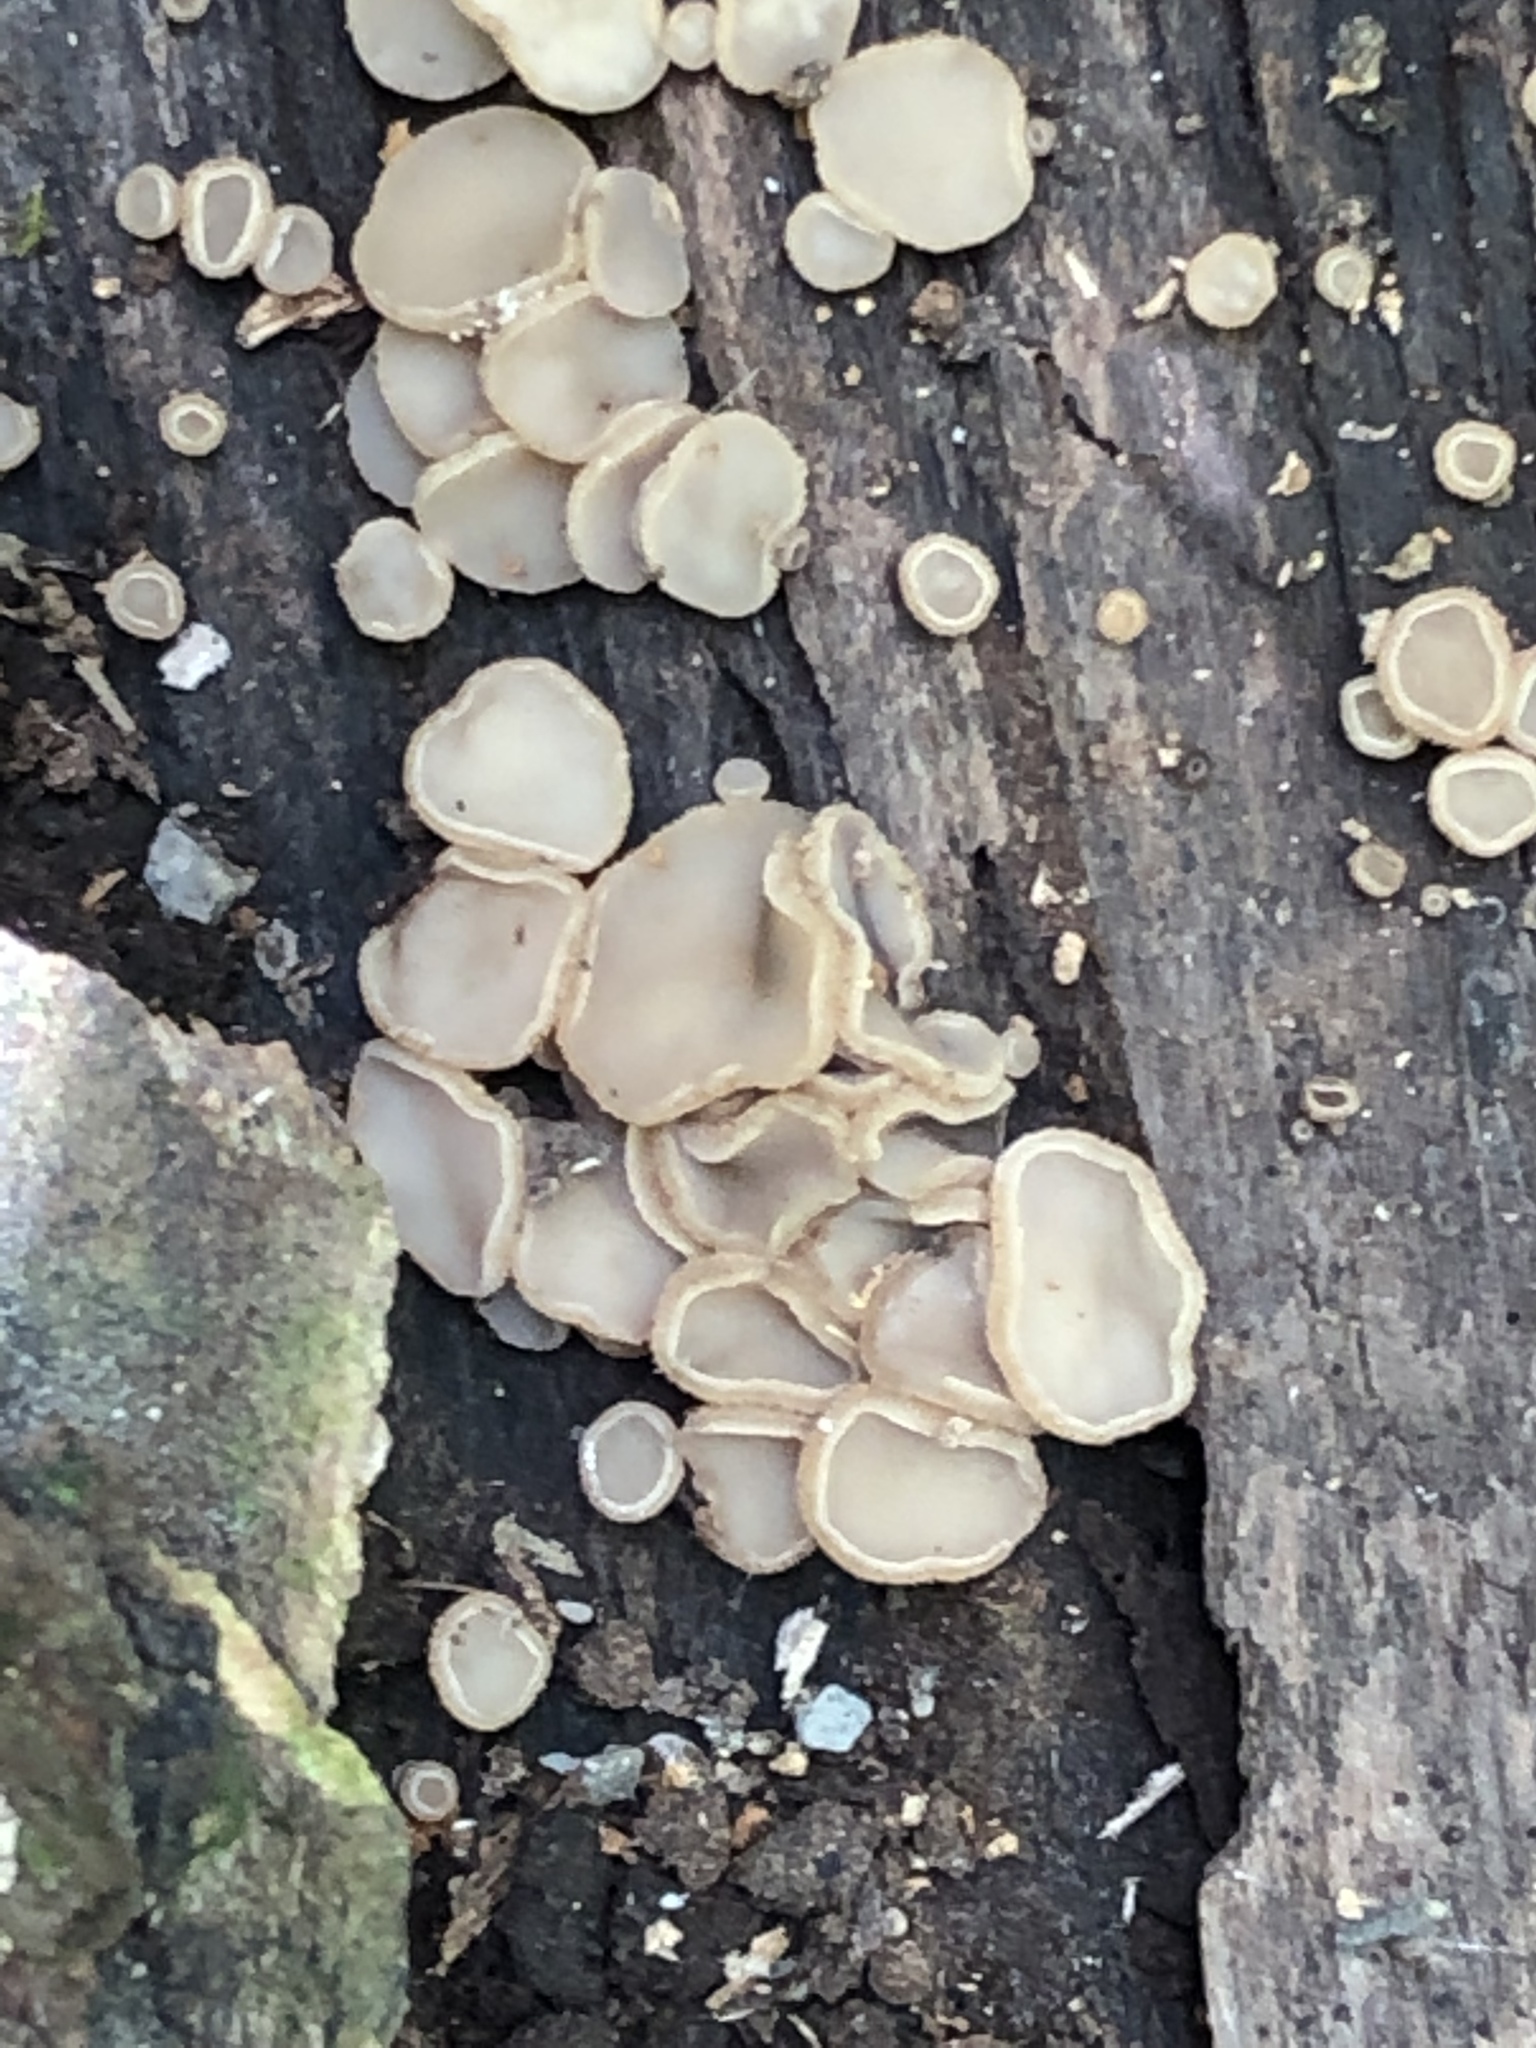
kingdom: Fungi
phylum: Ascomycota
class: Leotiomycetes
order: Helotiales
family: Helotiaceae
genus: Tatraea
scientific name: Tatraea macrospora
